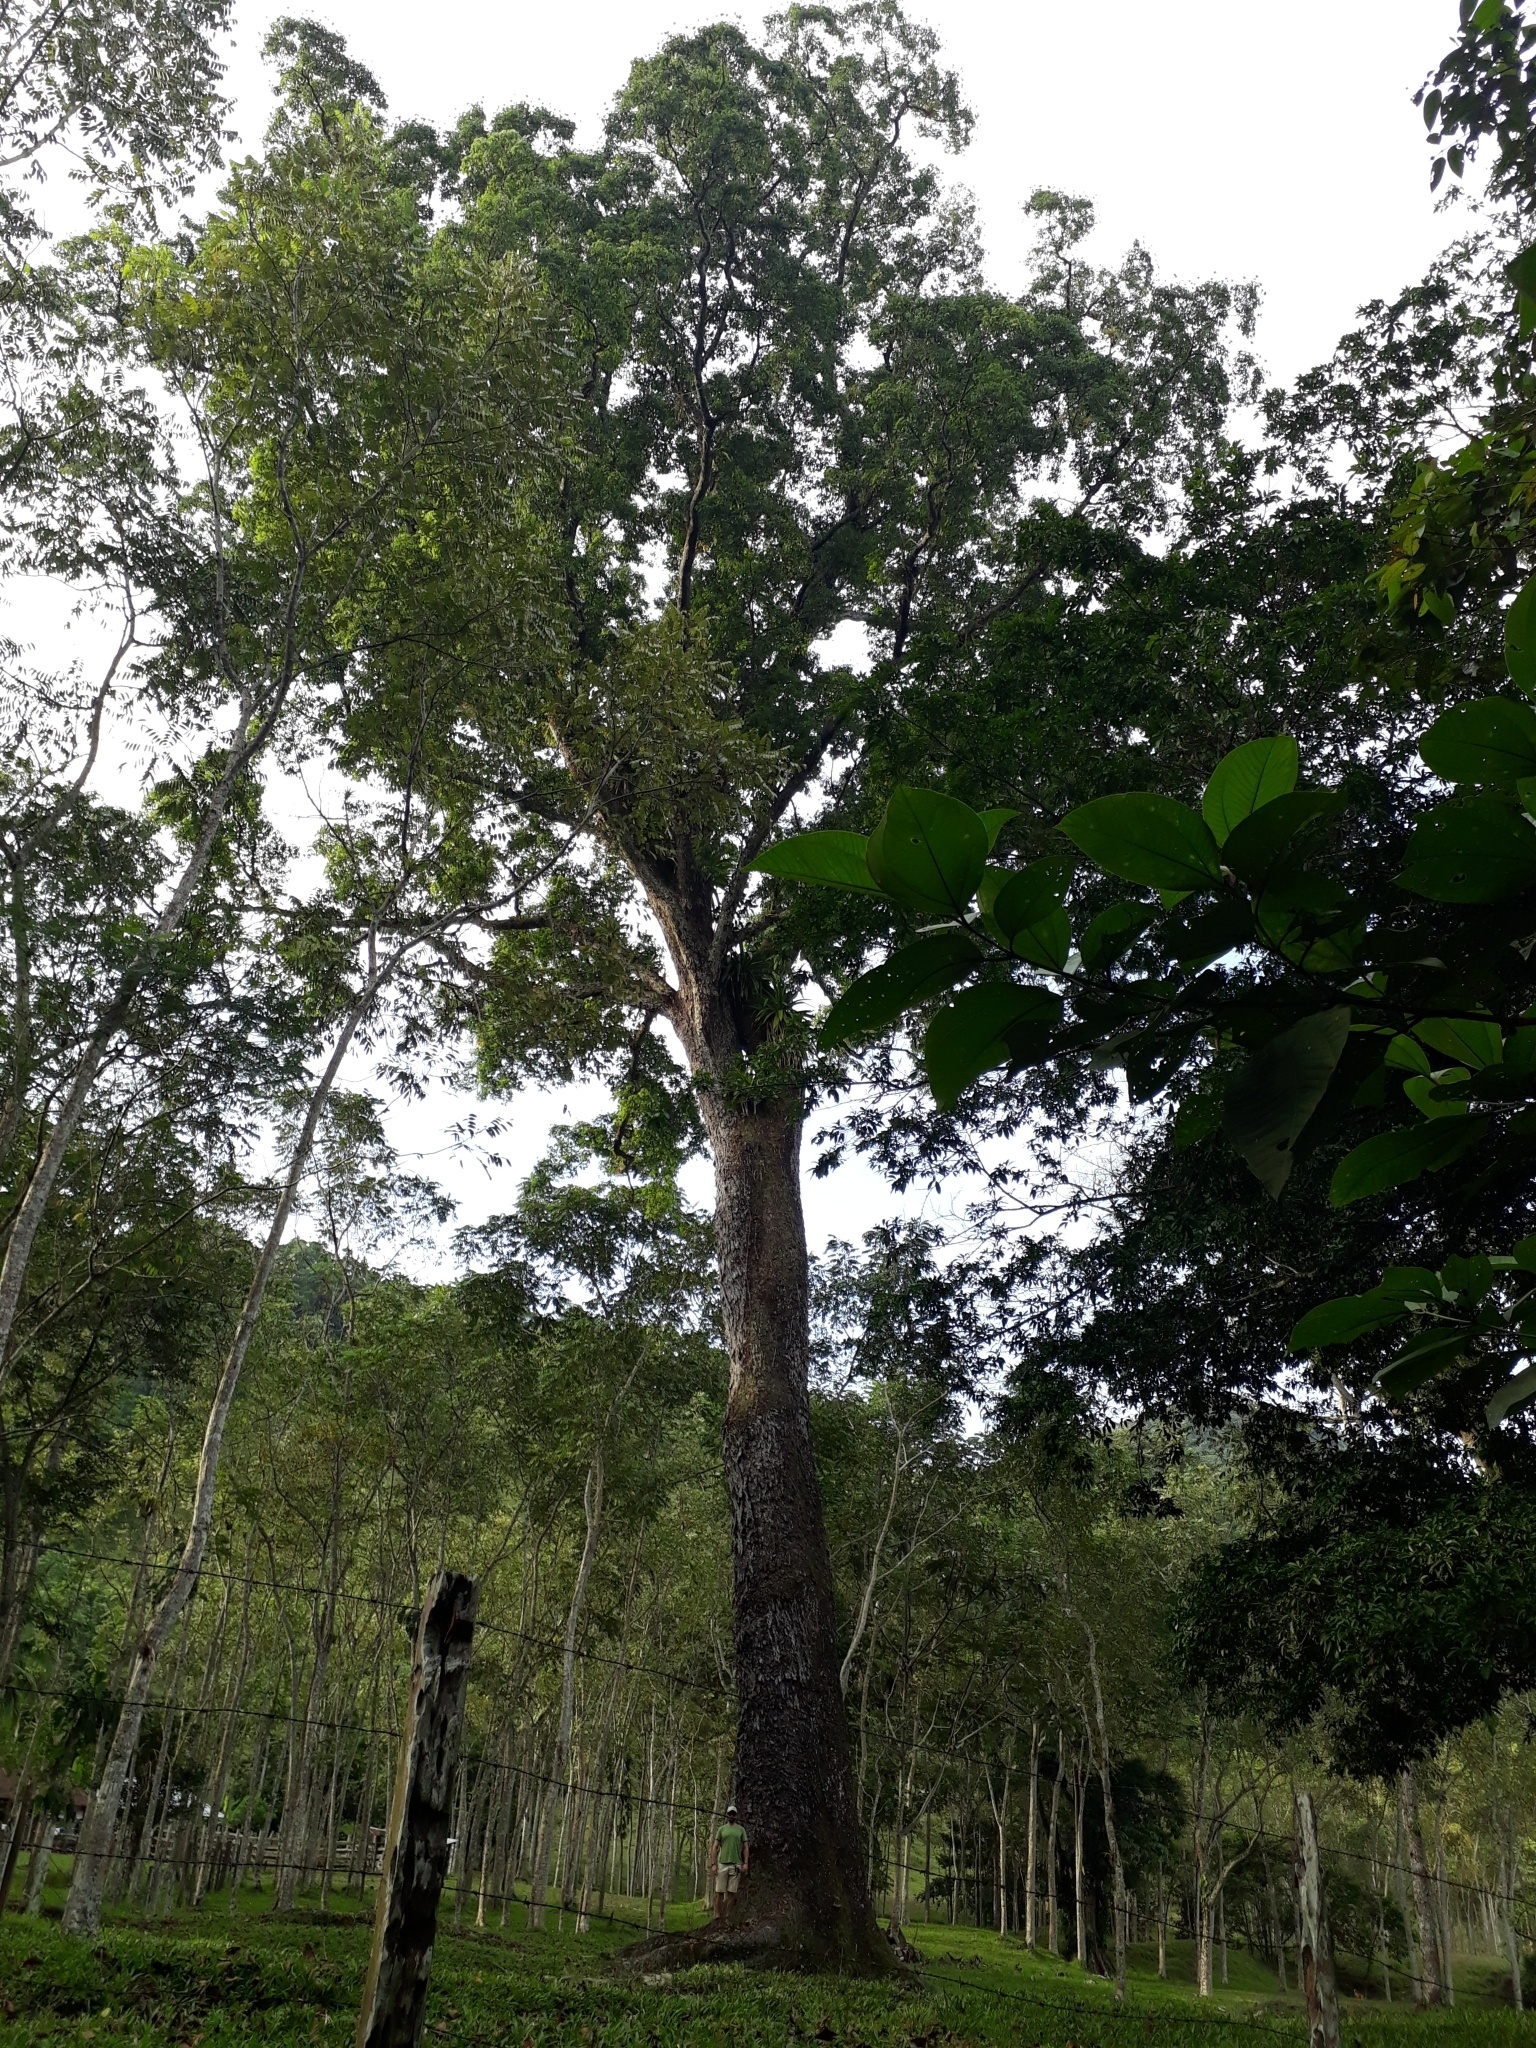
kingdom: Plantae
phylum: Tracheophyta
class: Magnoliopsida
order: Malpighiales
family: Caryocaraceae
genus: Caryocar
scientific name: Caryocar amygdaliferum
